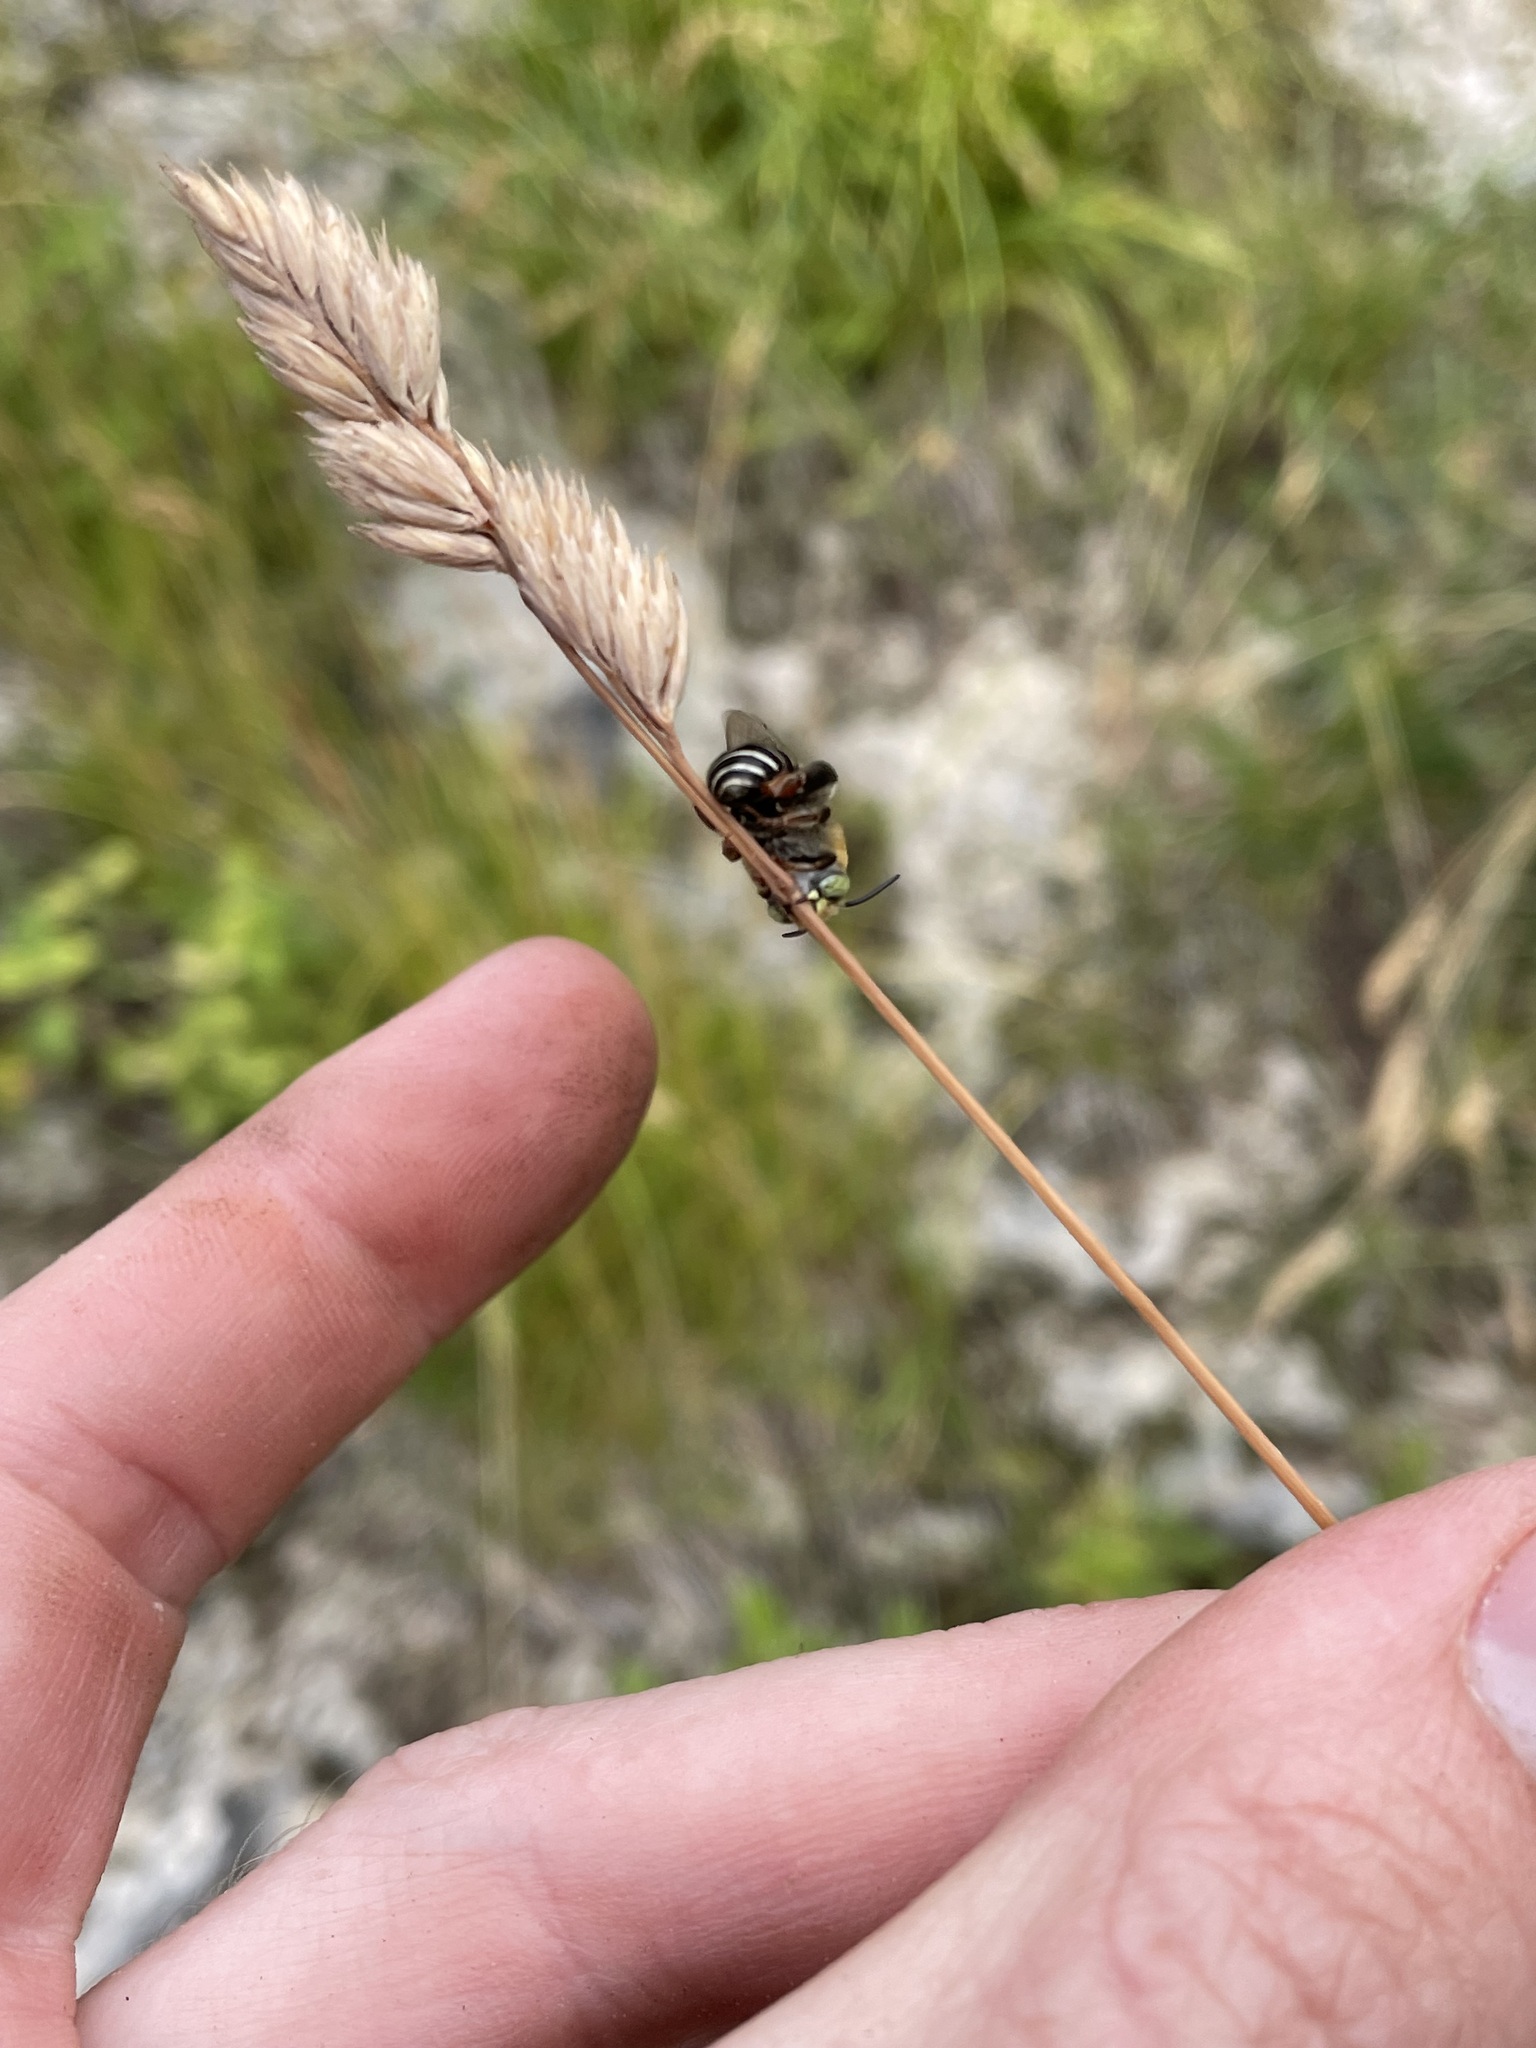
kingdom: Animalia
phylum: Arthropoda
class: Insecta
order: Hymenoptera
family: Apidae
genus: Anthophora
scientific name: Anthophora californica
